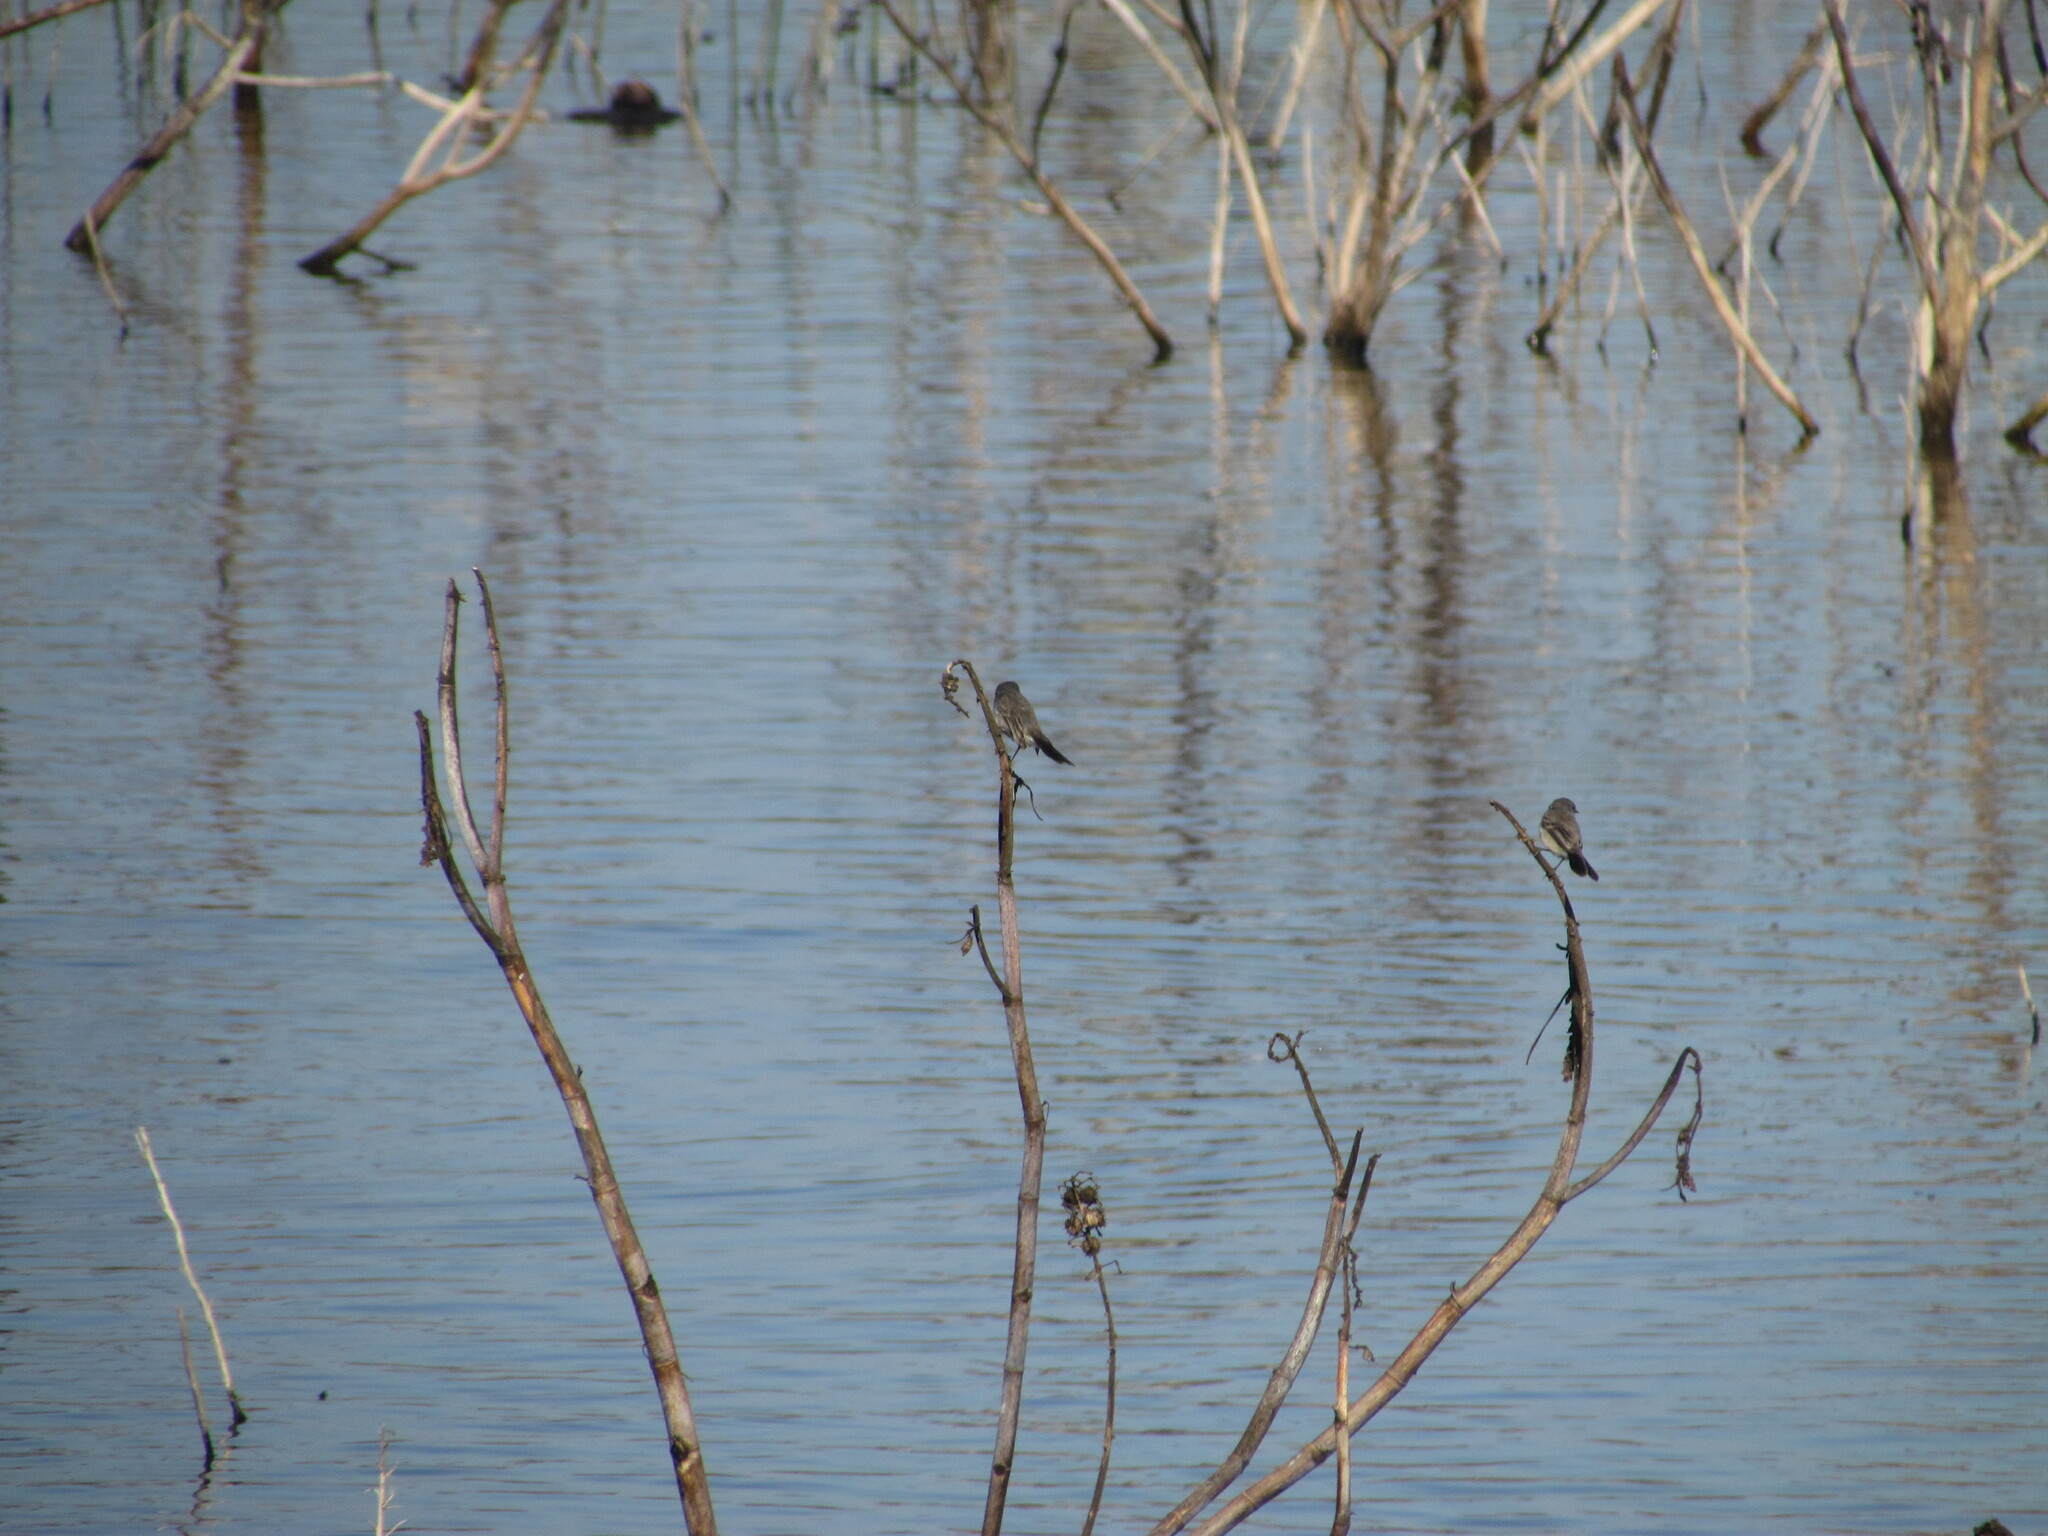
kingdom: Animalia
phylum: Chordata
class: Aves
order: Passeriformes
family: Tyrannidae
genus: Serpophaga
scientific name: Serpophaga nigricans
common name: Sooty tyrannulet
